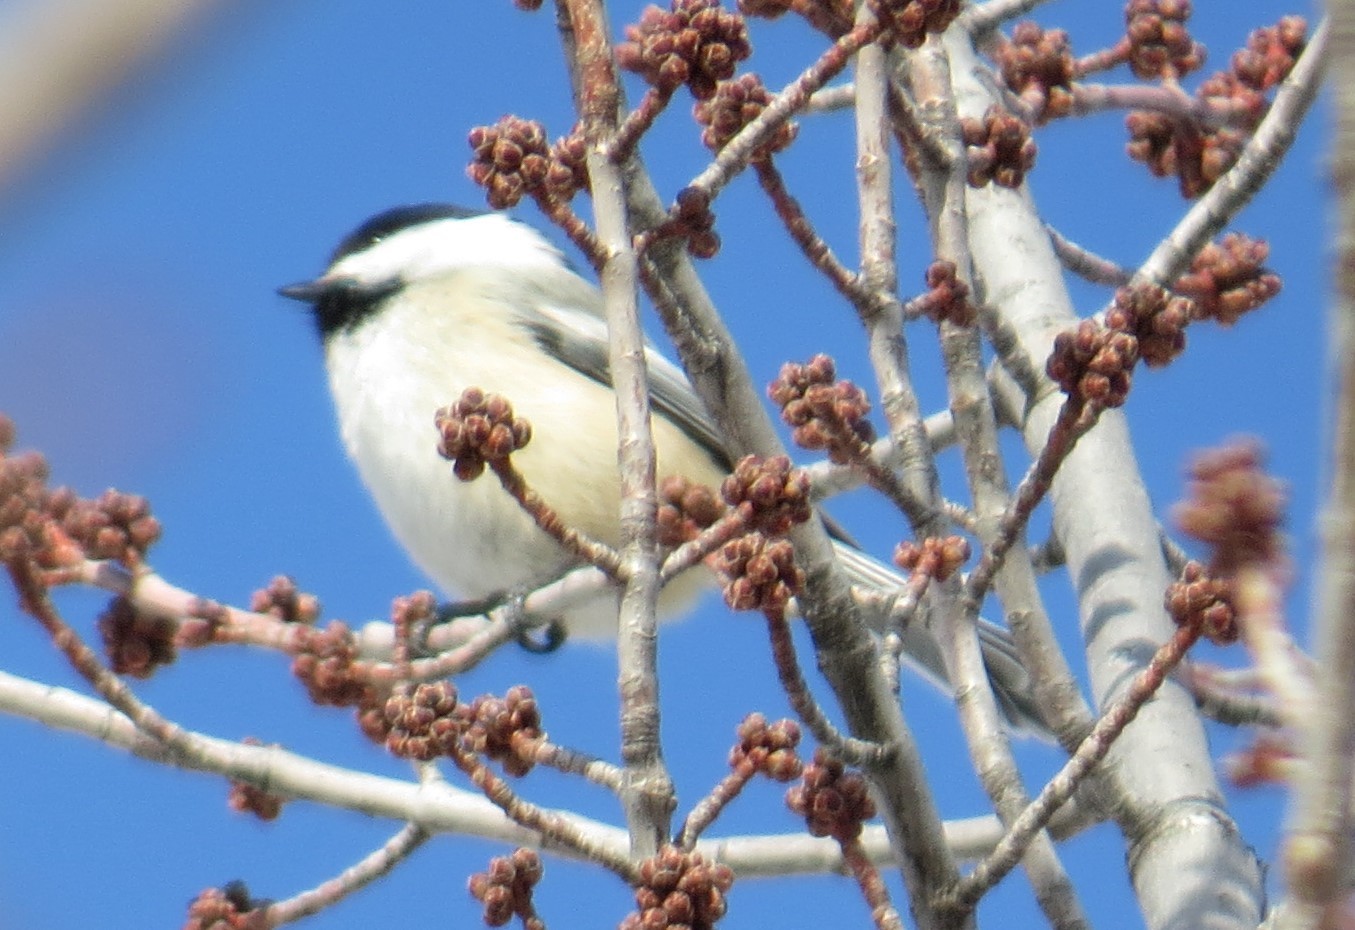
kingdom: Animalia
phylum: Chordata
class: Aves
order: Passeriformes
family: Paridae
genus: Poecile
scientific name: Poecile atricapillus
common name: Black-capped chickadee
